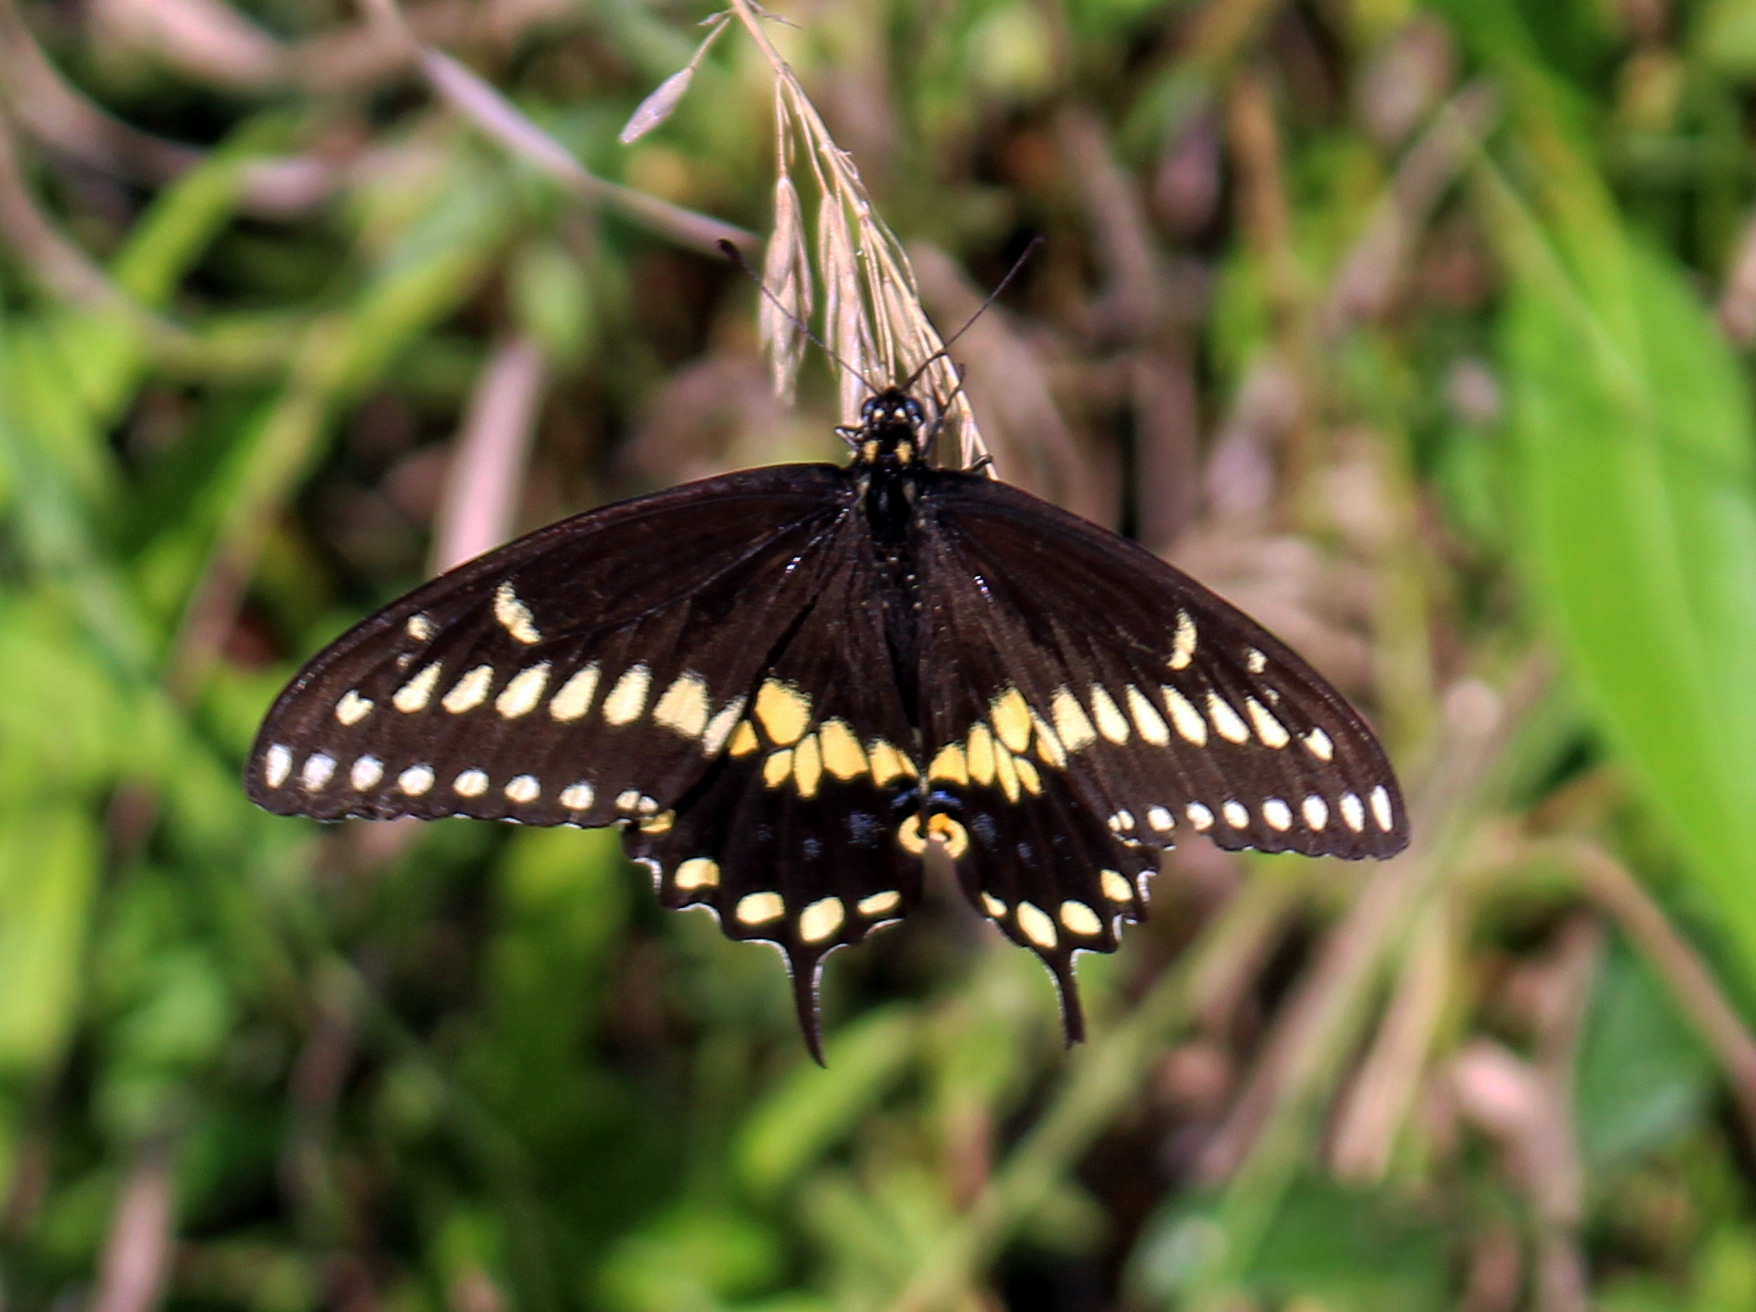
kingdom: Animalia
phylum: Arthropoda
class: Insecta
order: Lepidoptera
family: Papilionidae
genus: Papilio
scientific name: Papilio polyxenes
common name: Black swallowtail
